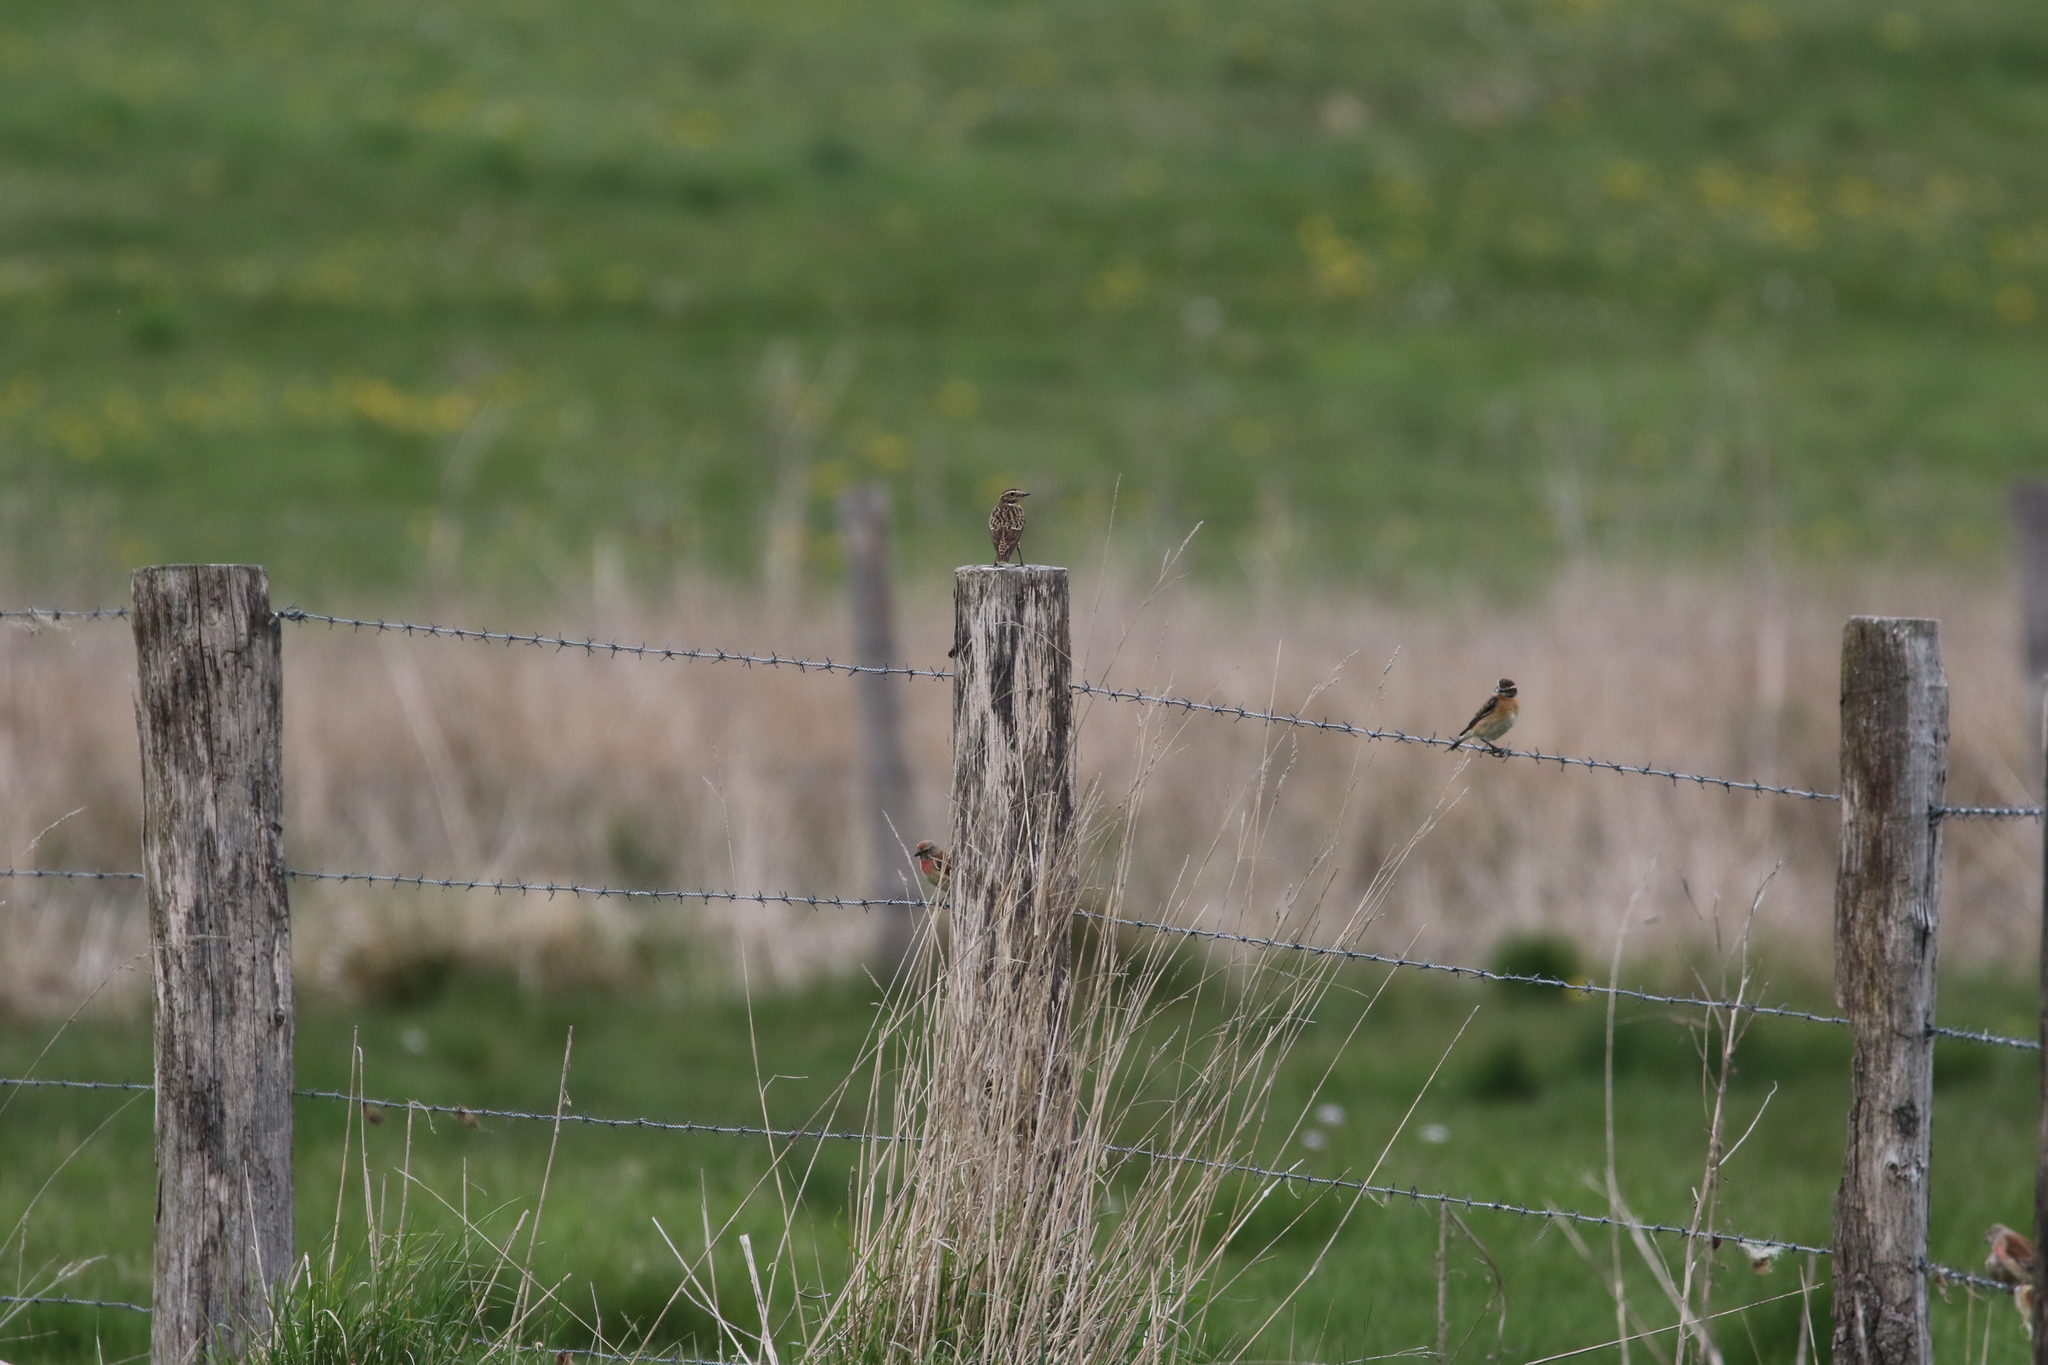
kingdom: Animalia
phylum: Chordata
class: Aves
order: Passeriformes
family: Muscicapidae
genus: Saxicola
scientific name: Saxicola rubetra
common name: Whinchat
